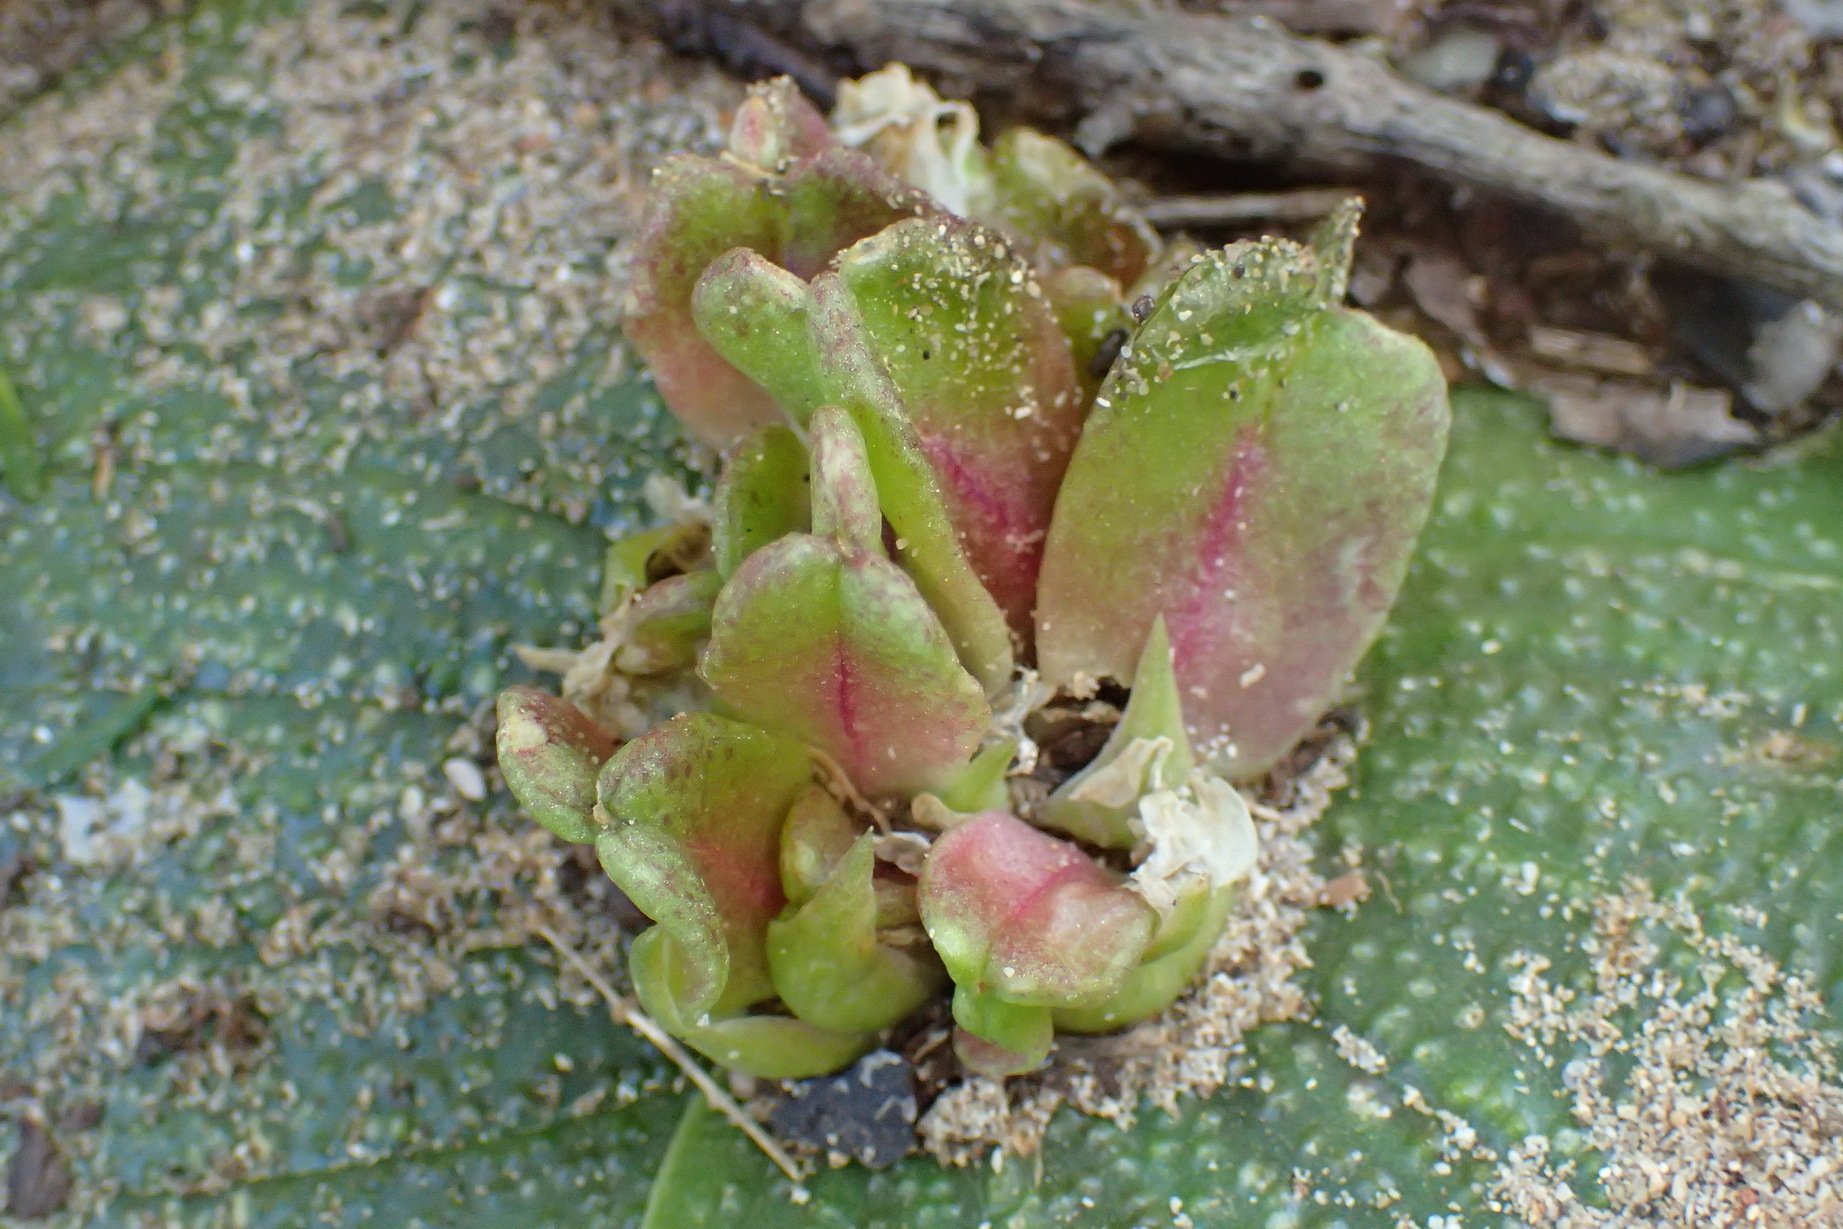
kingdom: Plantae
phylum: Tracheophyta
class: Liliopsida
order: Asparagales
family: Asparagaceae
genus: Massonia
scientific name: Massonia longipes
